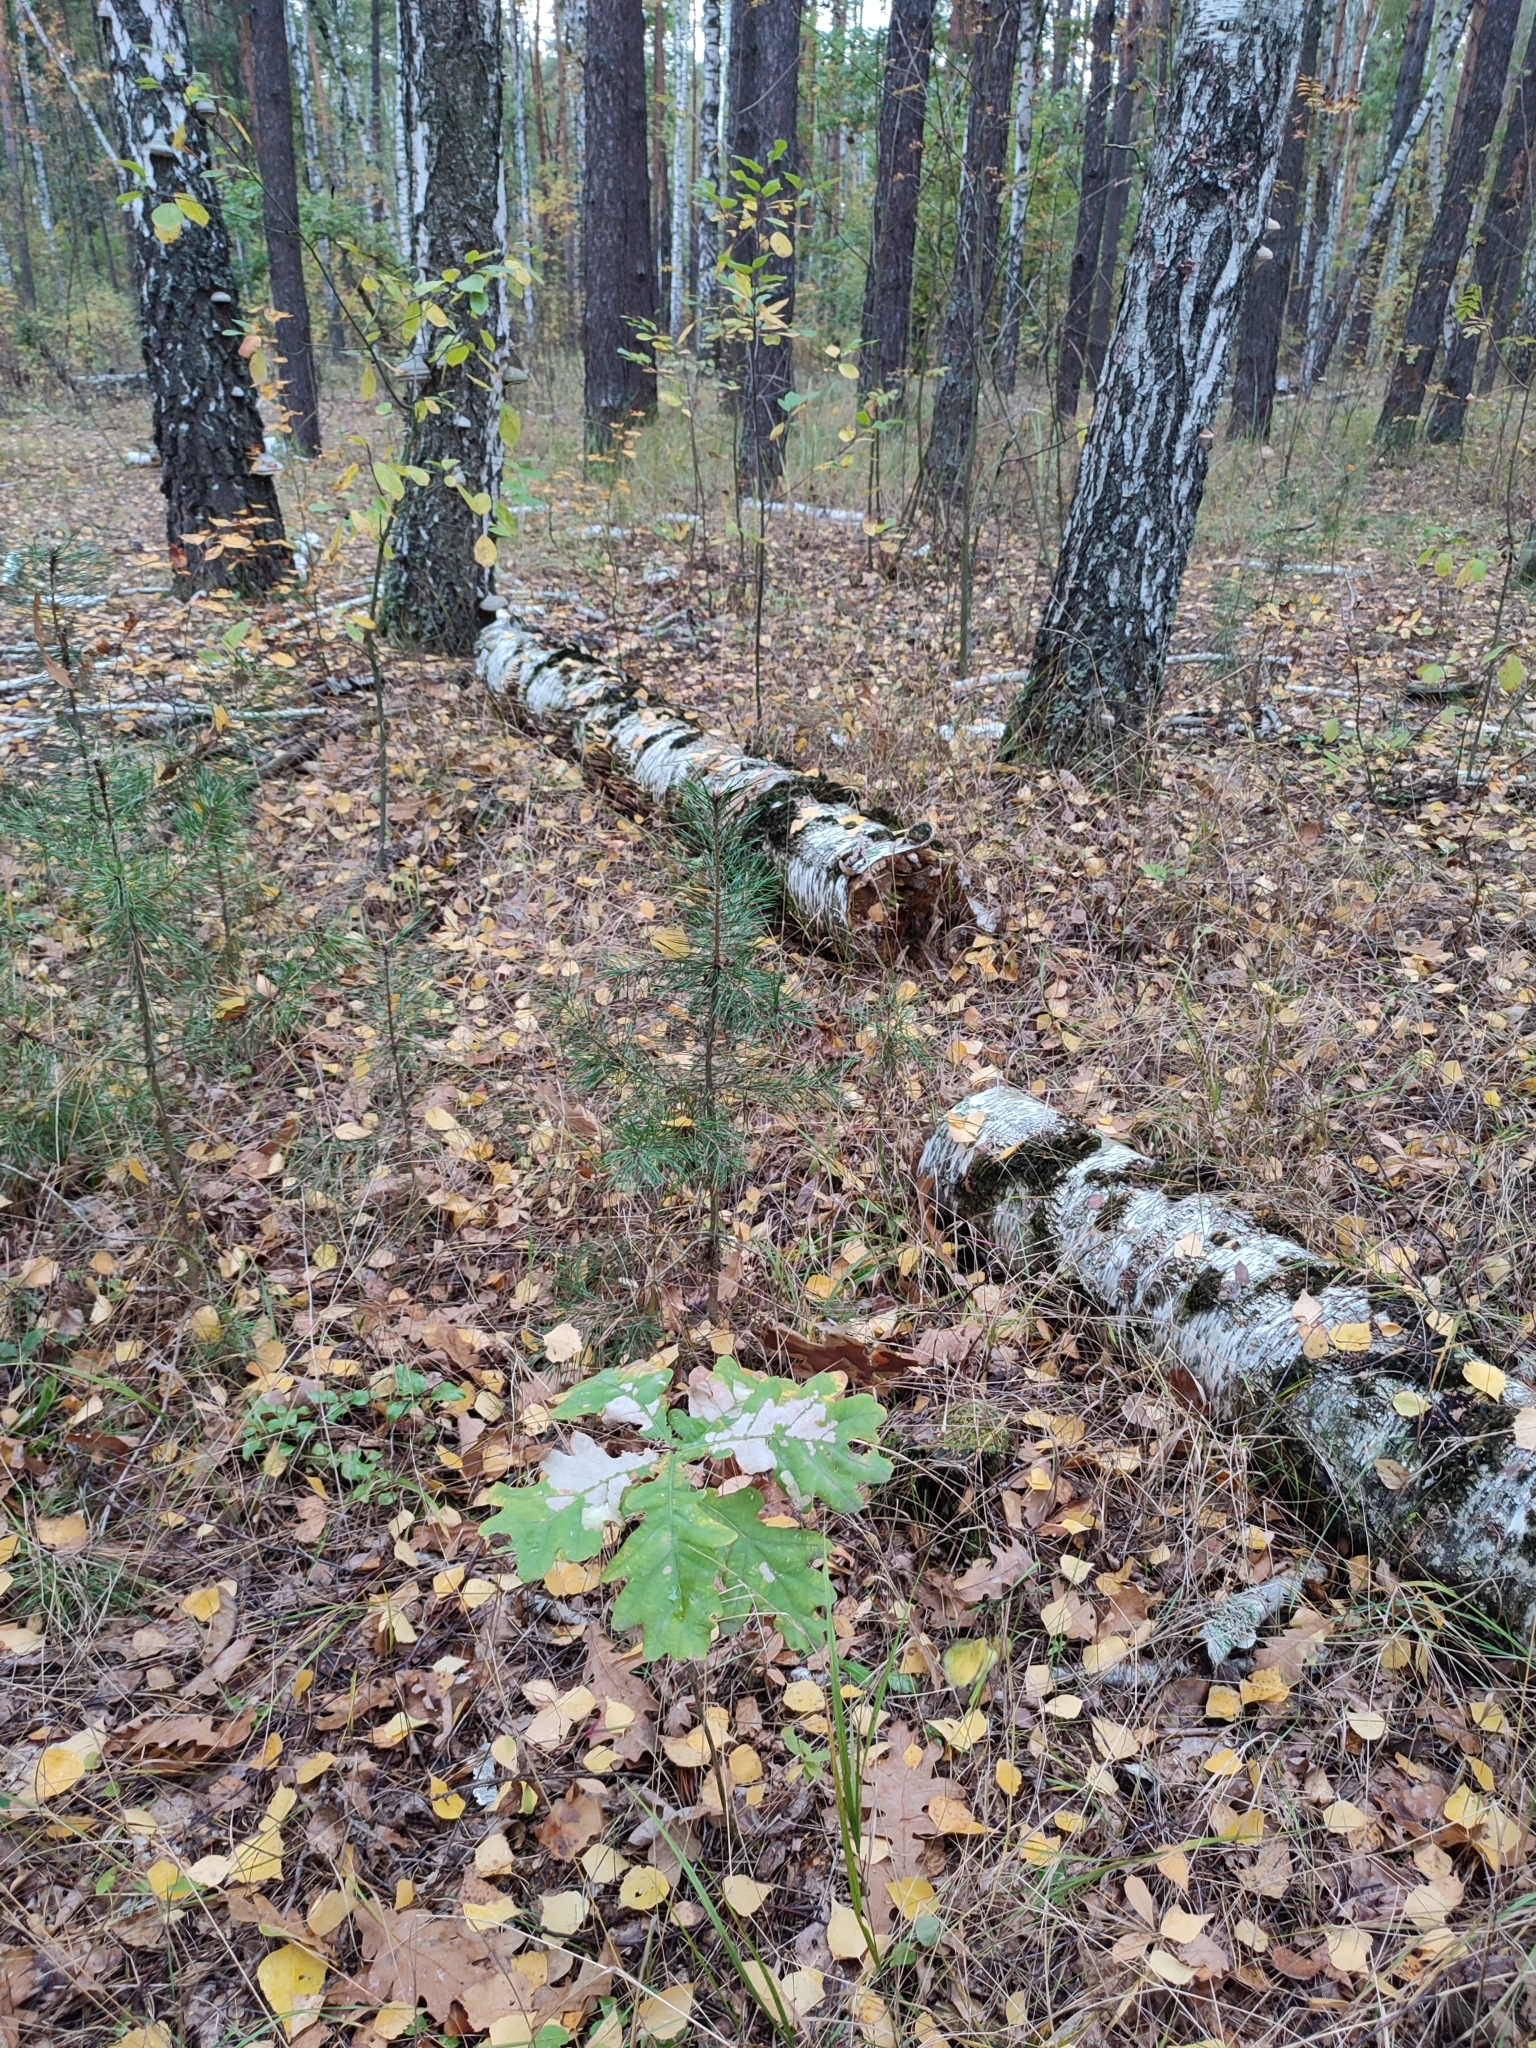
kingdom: Plantae
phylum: Tracheophyta
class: Magnoliopsida
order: Fagales
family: Fagaceae
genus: Quercus
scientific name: Quercus robur
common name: Pedunculate oak
